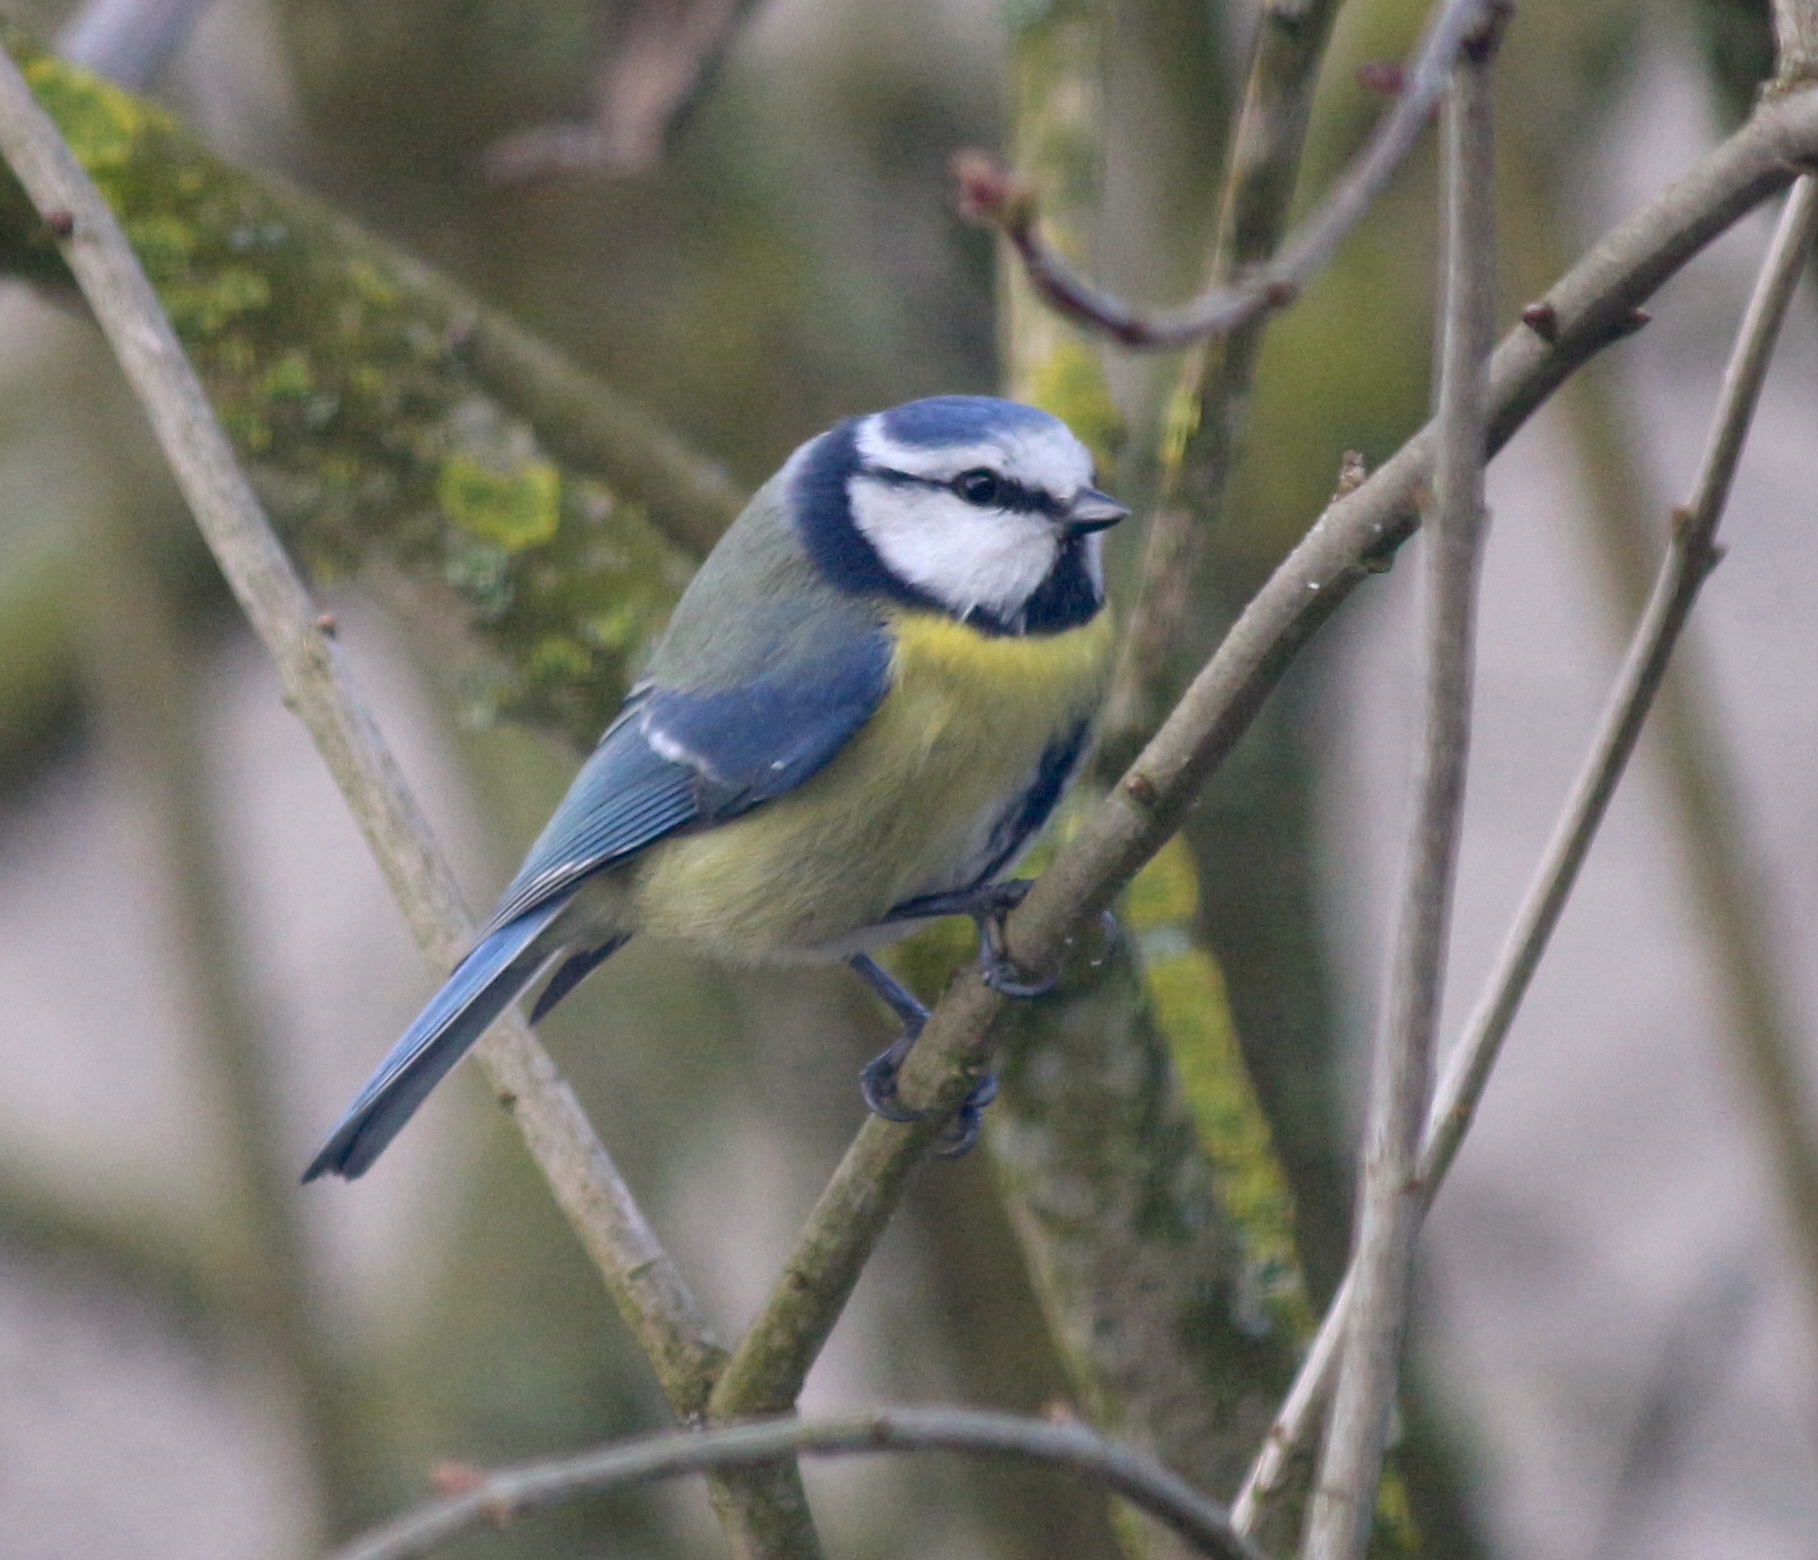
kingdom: Animalia
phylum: Chordata
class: Aves
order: Passeriformes
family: Paridae
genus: Cyanistes
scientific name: Cyanistes caeruleus
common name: Eurasian blue tit
